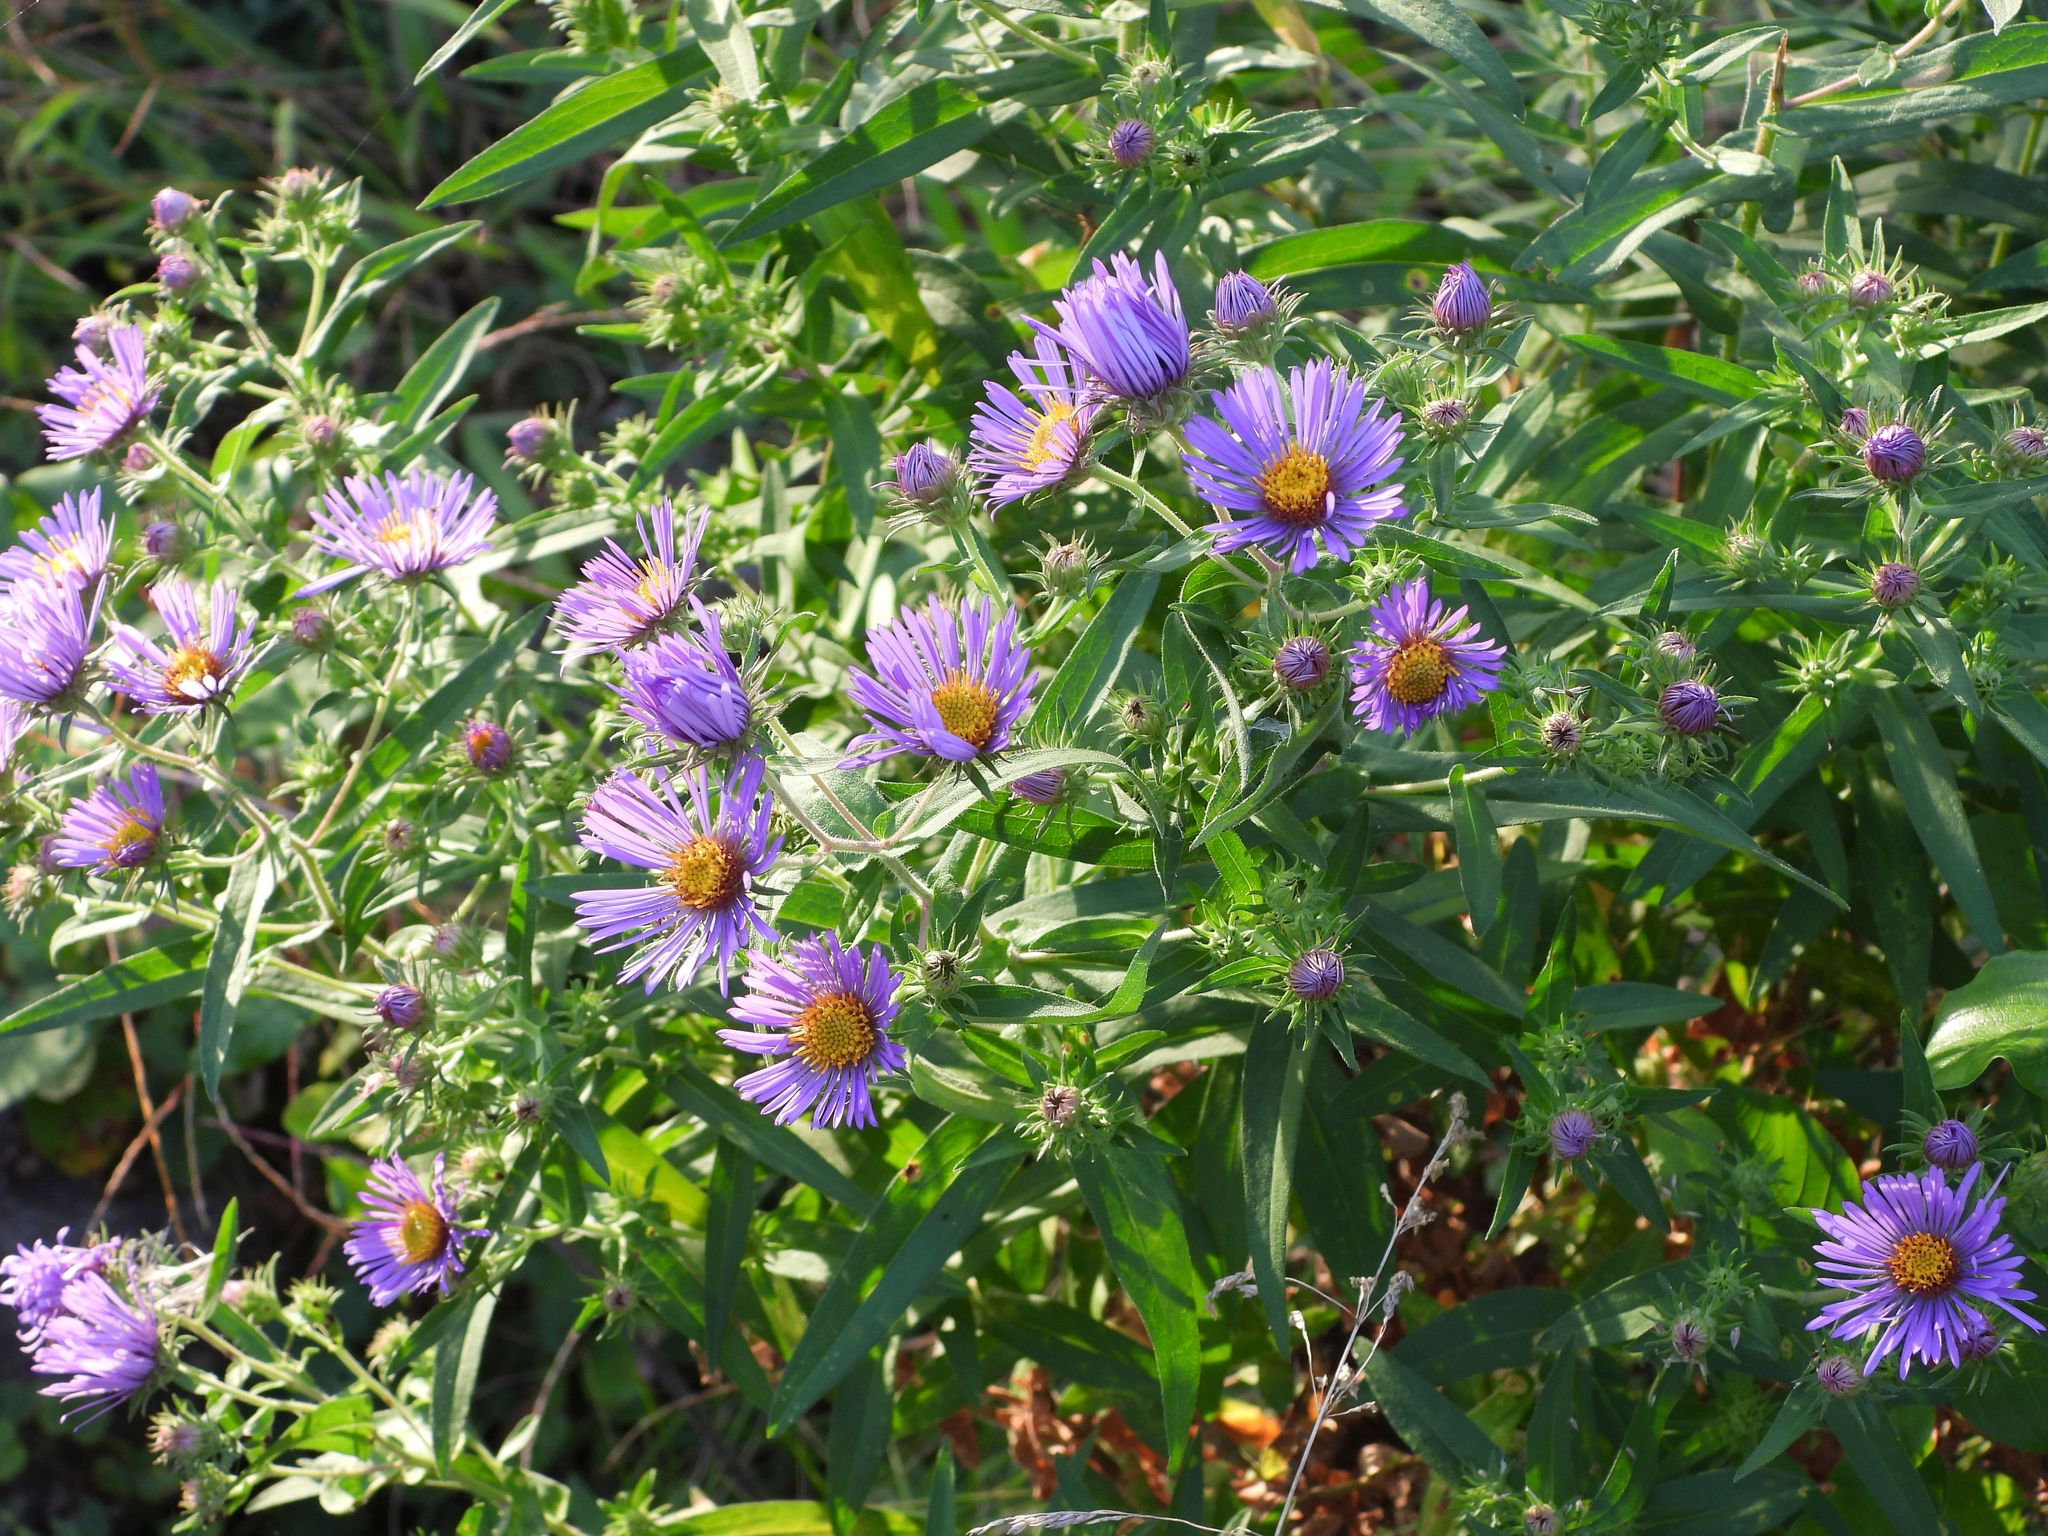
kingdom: Plantae
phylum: Tracheophyta
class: Magnoliopsida
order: Asterales
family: Asteraceae
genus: Symphyotrichum
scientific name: Symphyotrichum novae-angliae
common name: Michaelmas daisy
